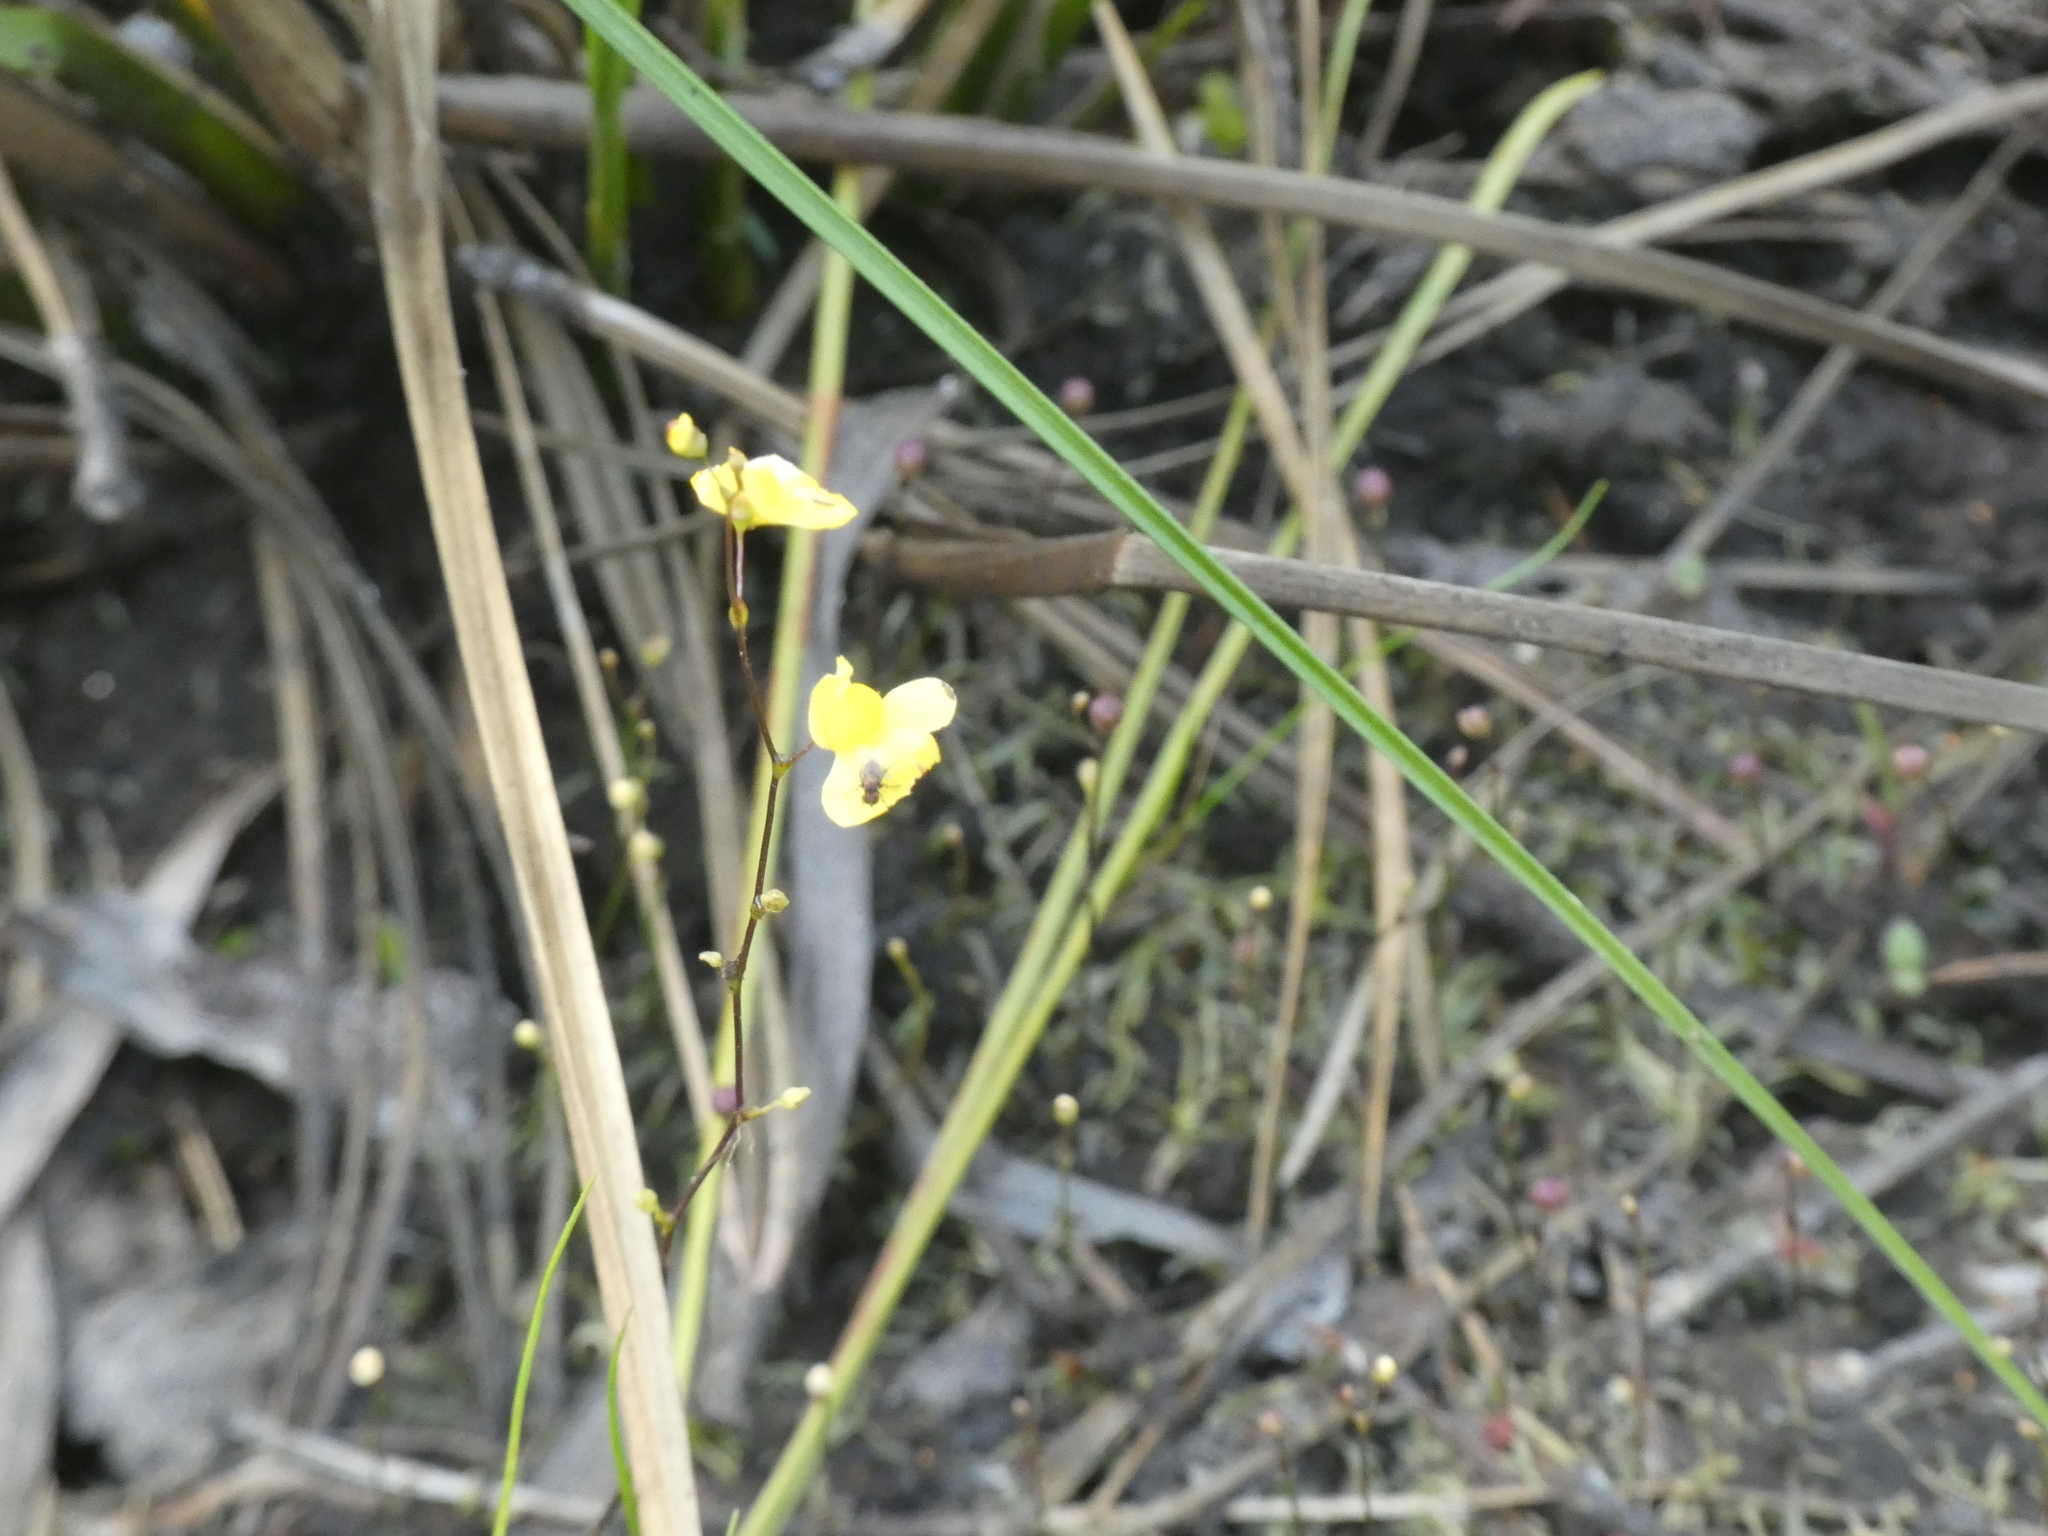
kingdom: Plantae
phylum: Tracheophyta
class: Magnoliopsida
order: Lamiales
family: Lentibulariaceae
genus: Utricularia
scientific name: Utricularia subulata
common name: Tiny bladderwort
